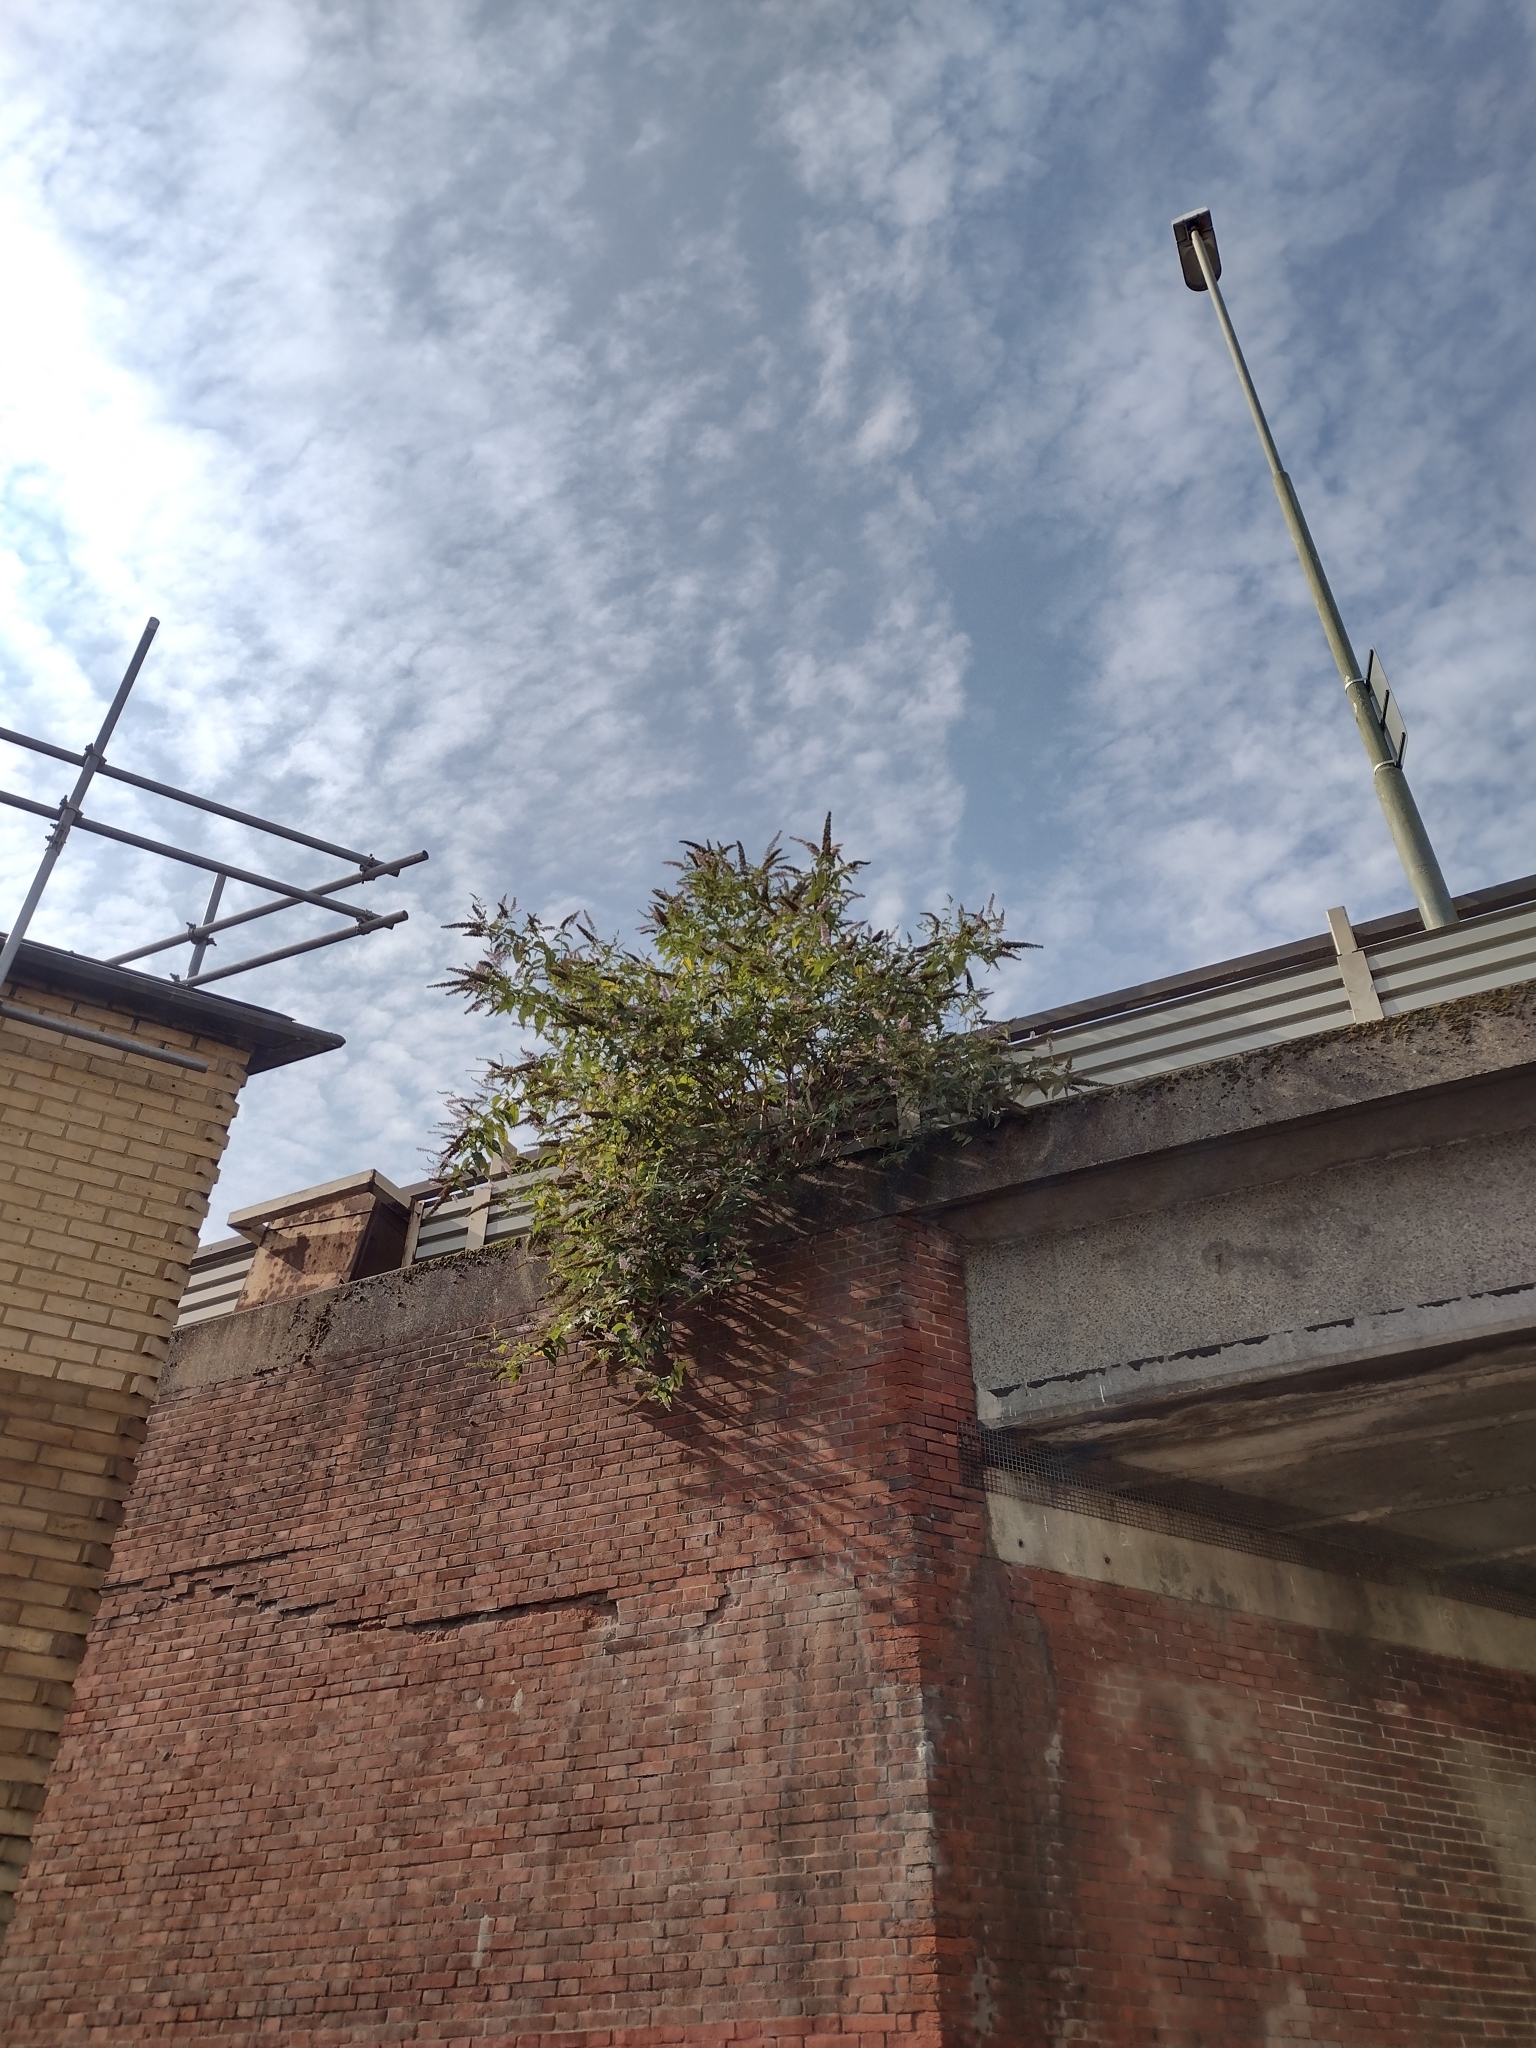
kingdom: Plantae
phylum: Tracheophyta
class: Magnoliopsida
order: Lamiales
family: Scrophulariaceae
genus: Buddleja
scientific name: Buddleja davidii
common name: Butterfly-bush
